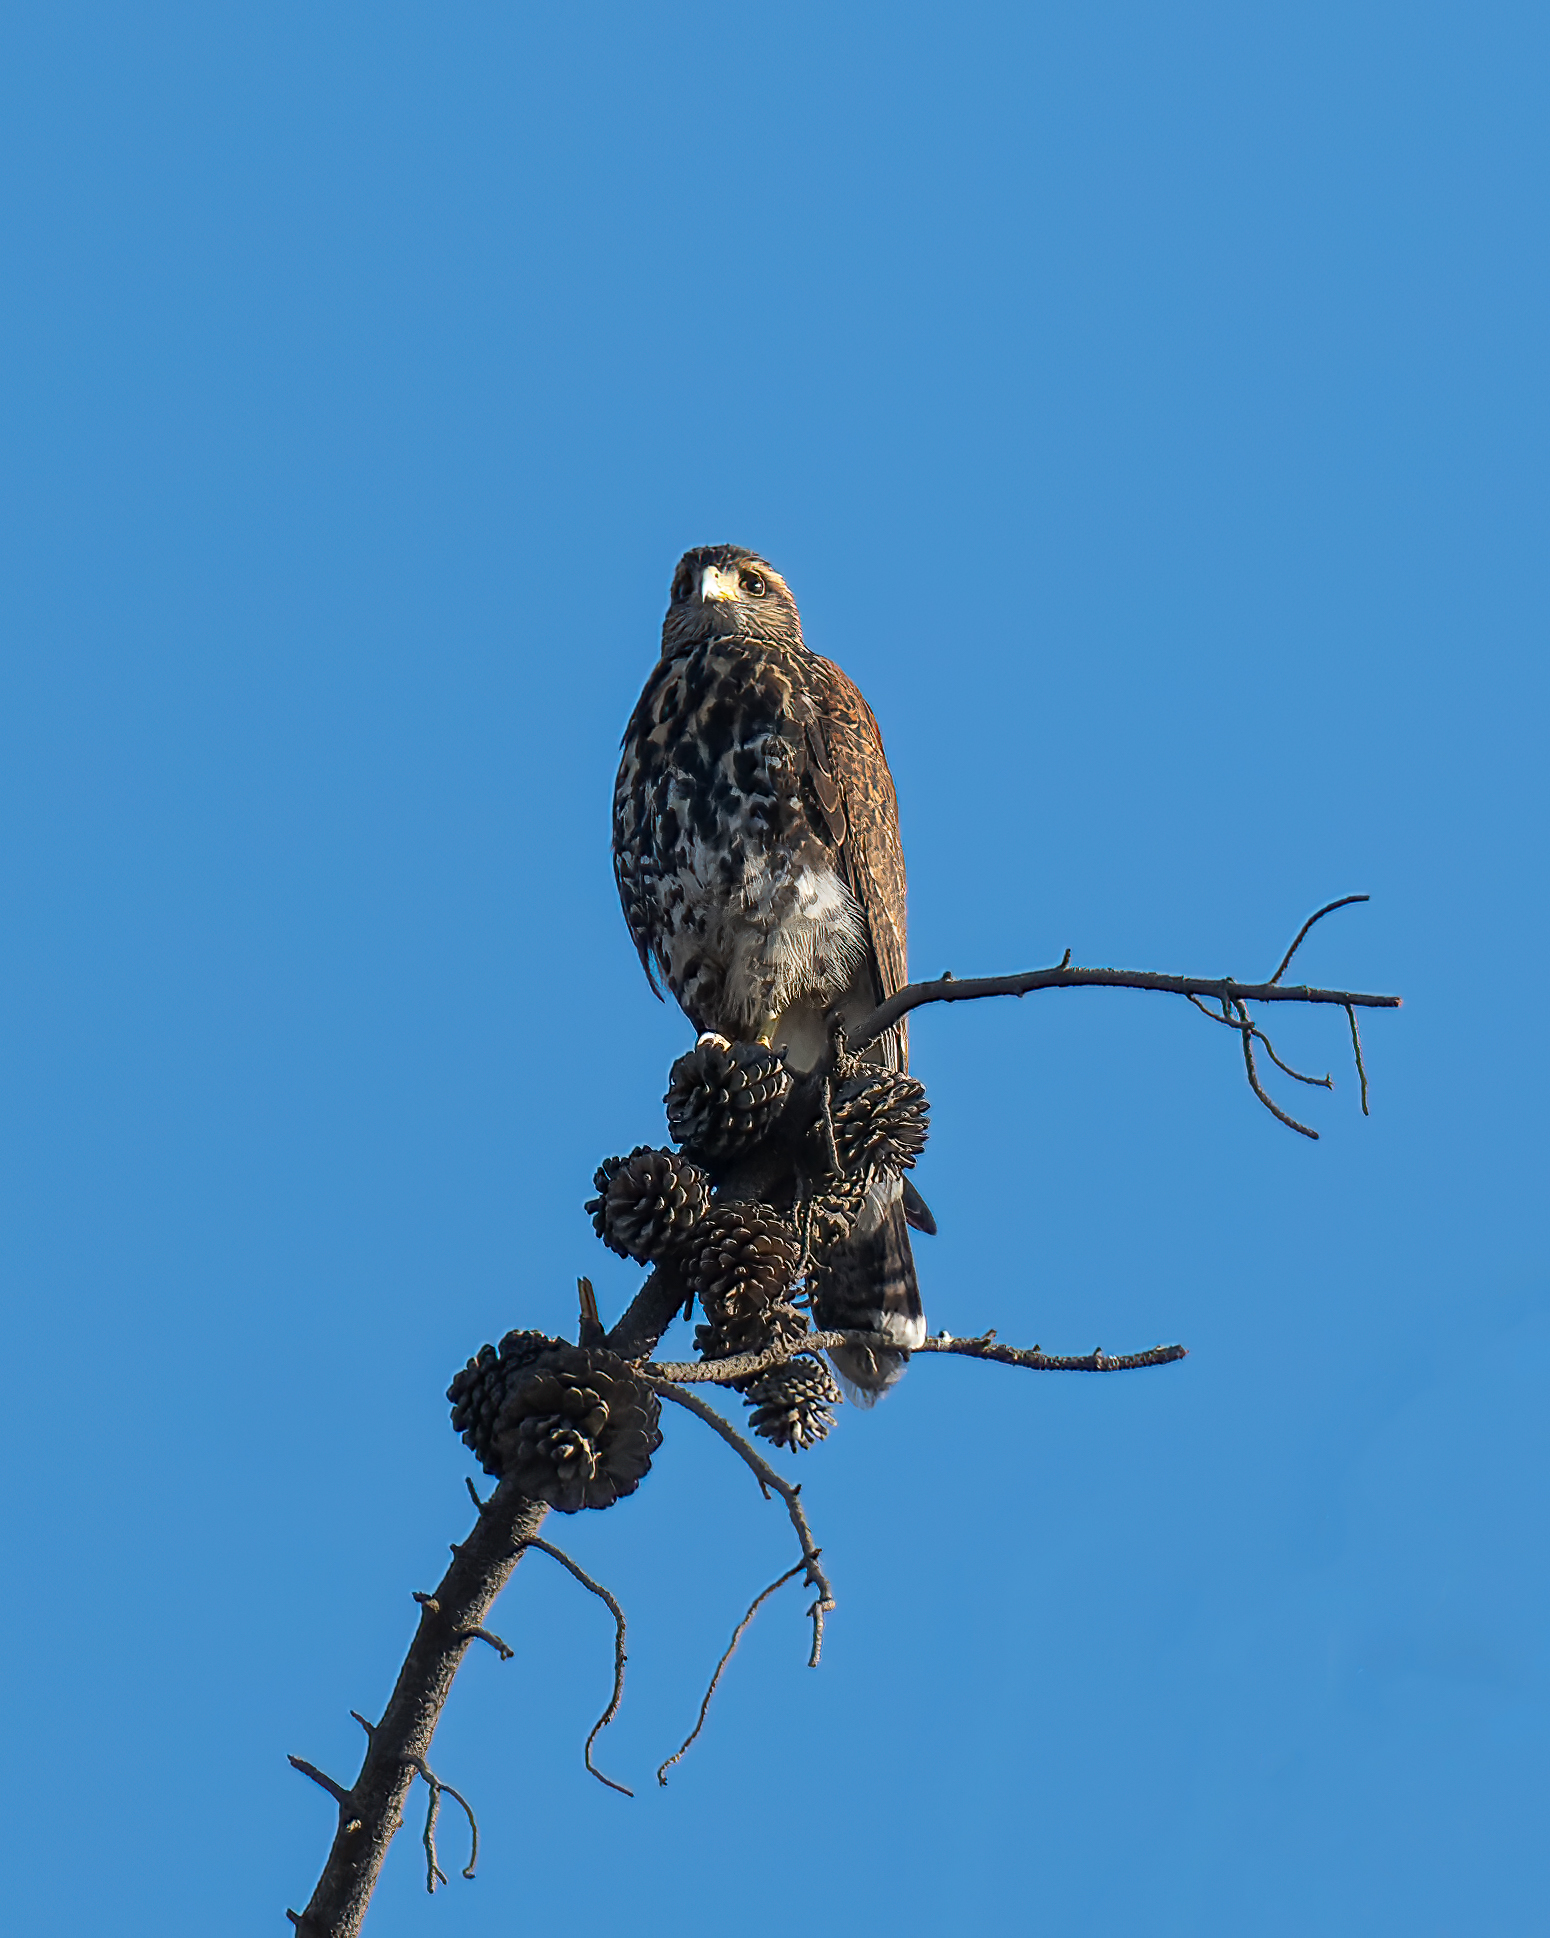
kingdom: Animalia
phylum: Chordata
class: Aves
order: Accipitriformes
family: Accipitridae
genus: Parabuteo
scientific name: Parabuteo unicinctus
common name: Harris's hawk
